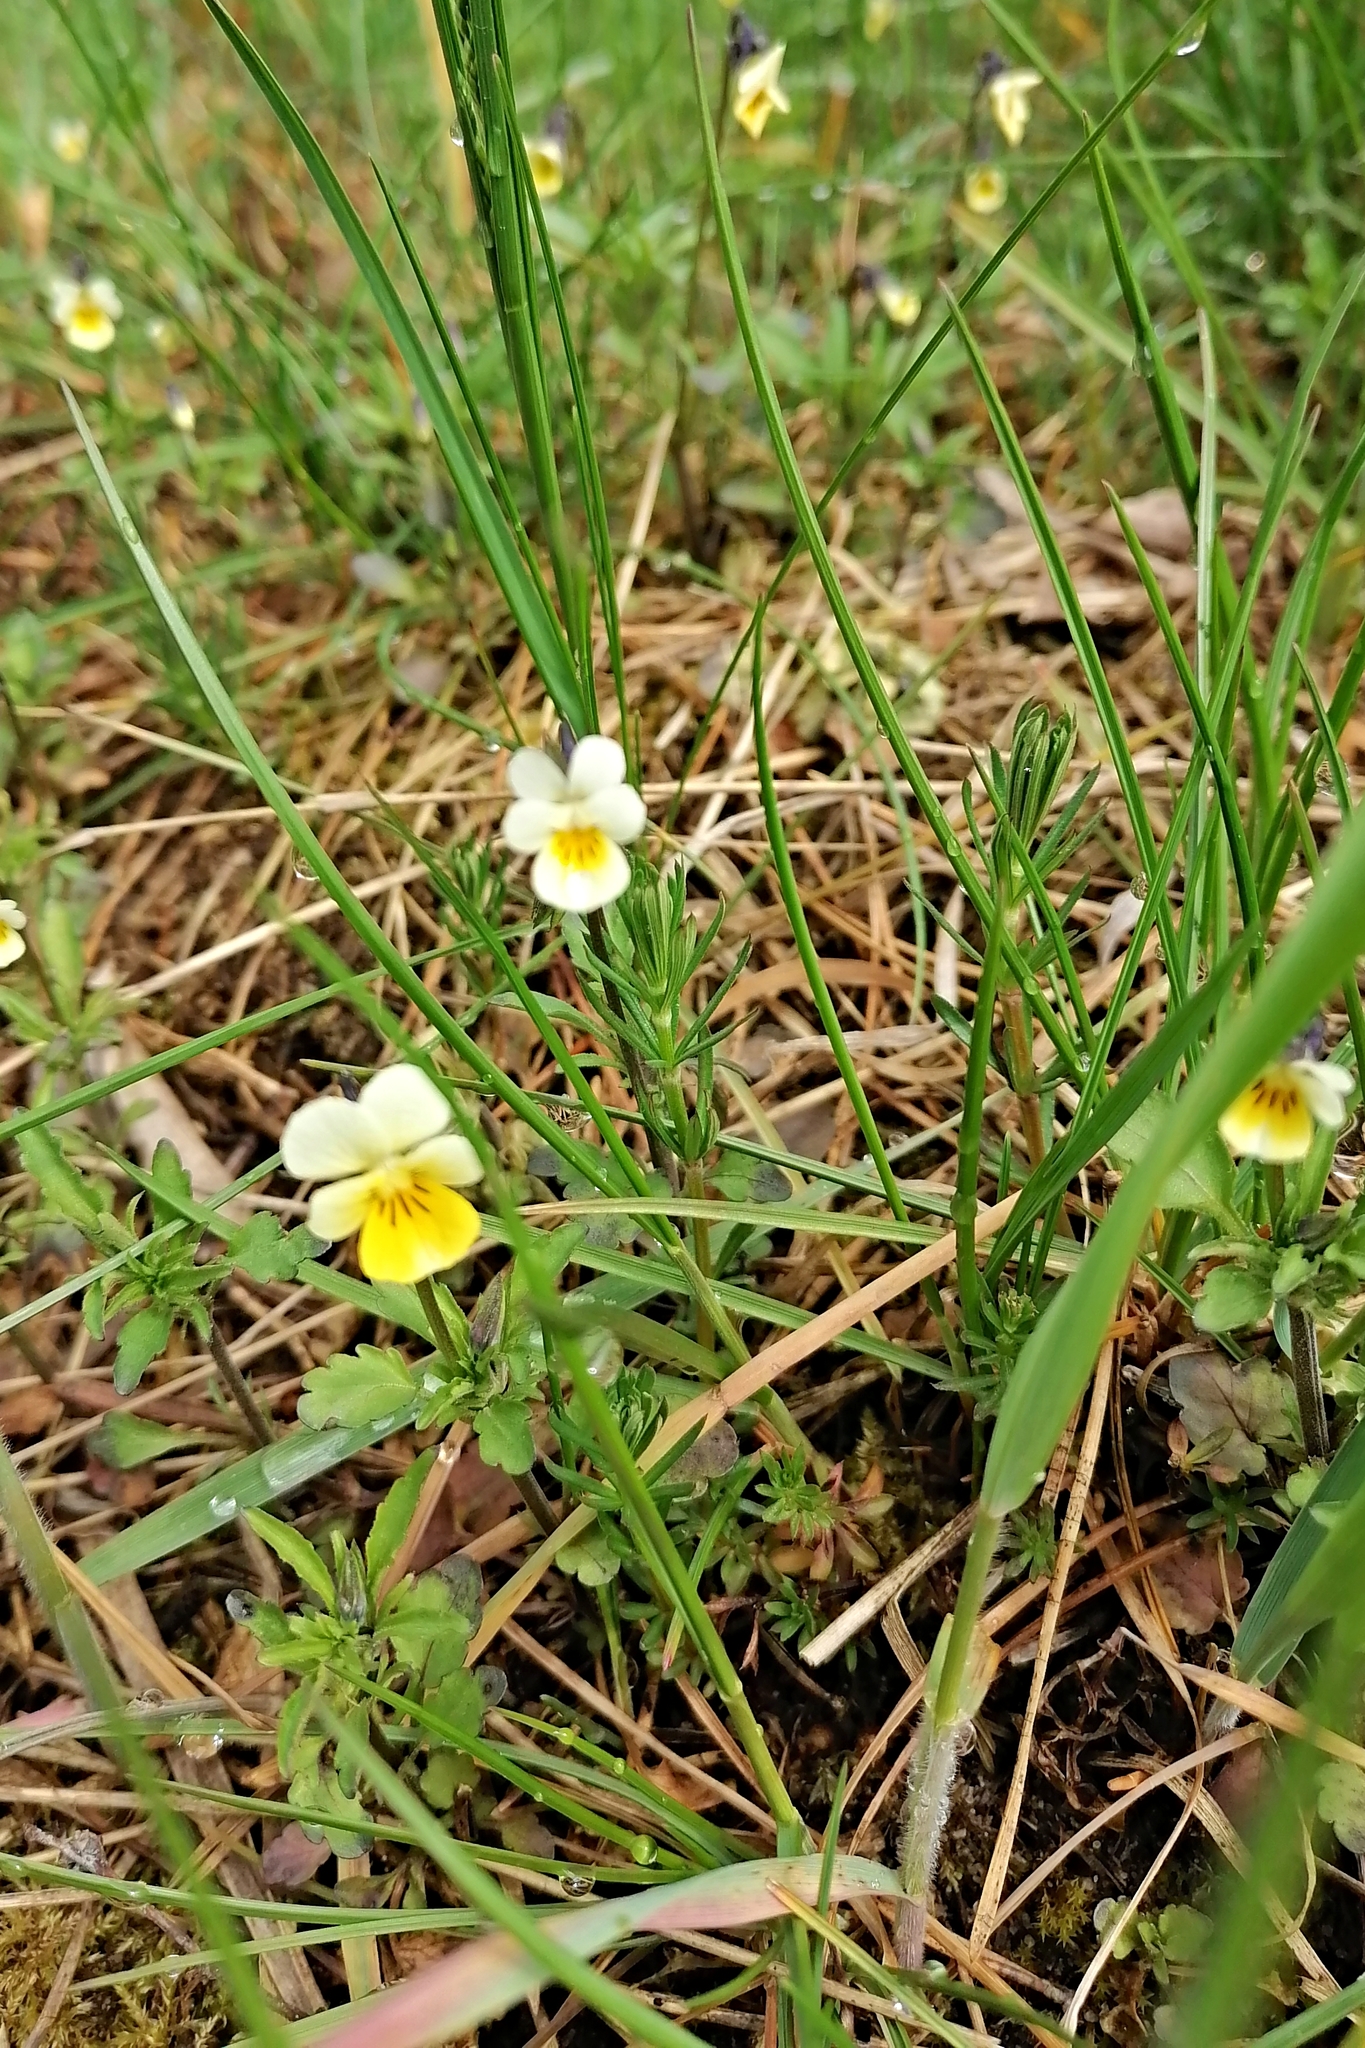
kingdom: Plantae
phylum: Tracheophyta
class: Magnoliopsida
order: Malpighiales
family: Violaceae
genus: Viola
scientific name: Viola arvensis
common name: Field pansy
